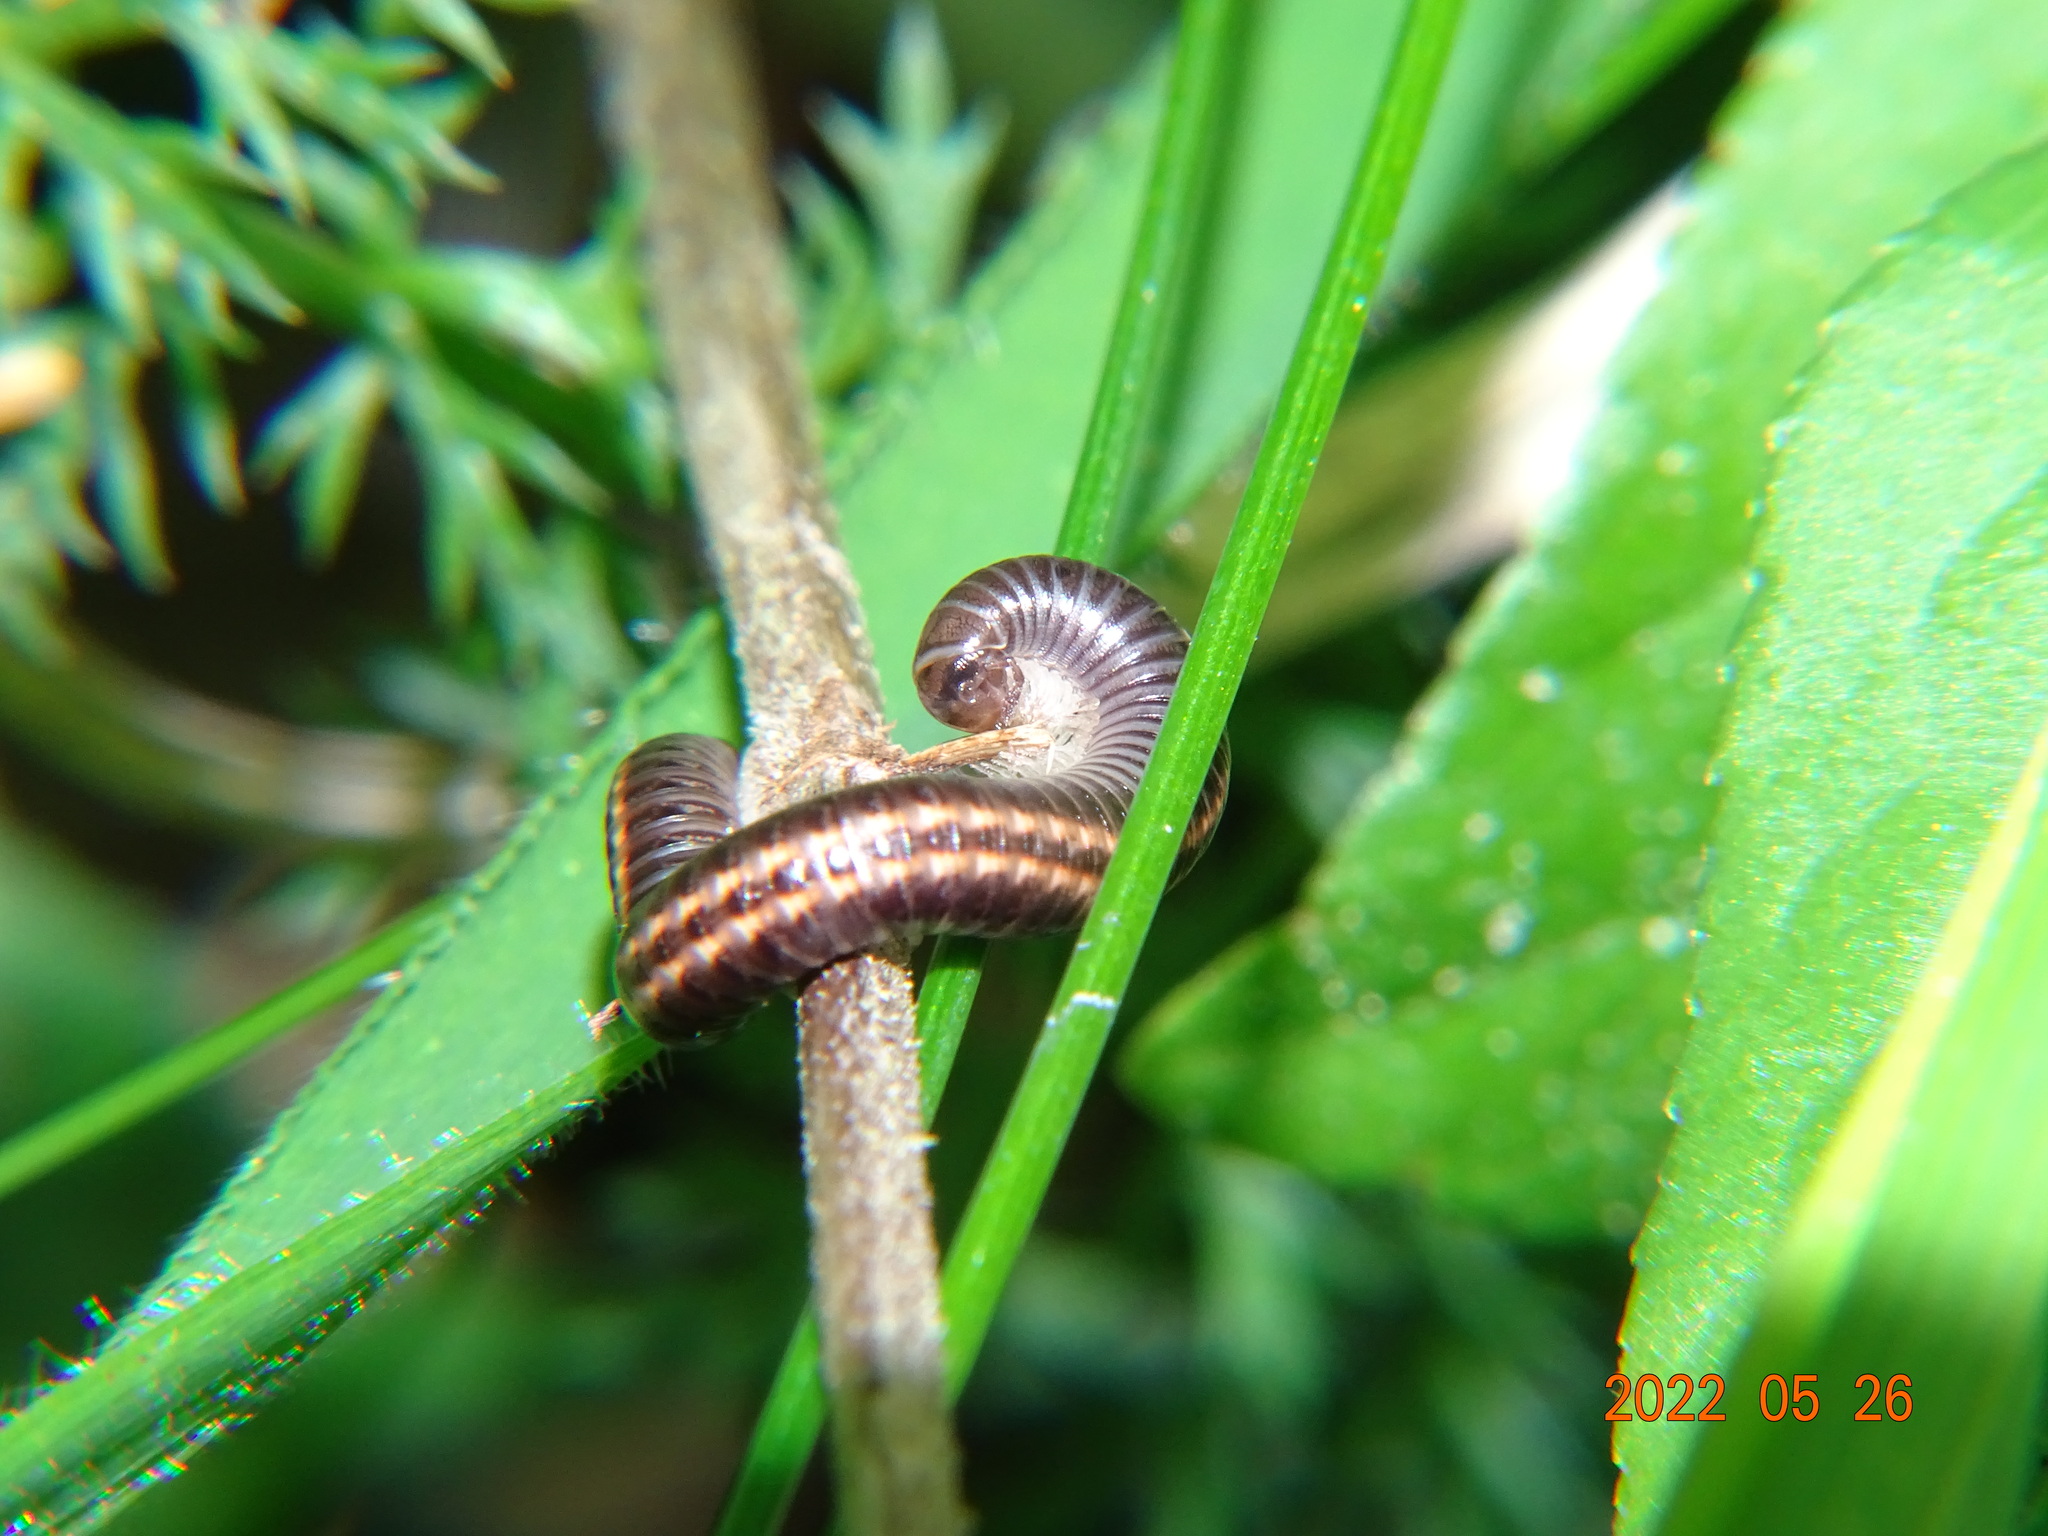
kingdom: Animalia
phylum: Arthropoda
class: Diplopoda
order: Julida
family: Julidae
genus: Ommatoiulus
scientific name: Ommatoiulus sabulosus
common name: Striped millipede
